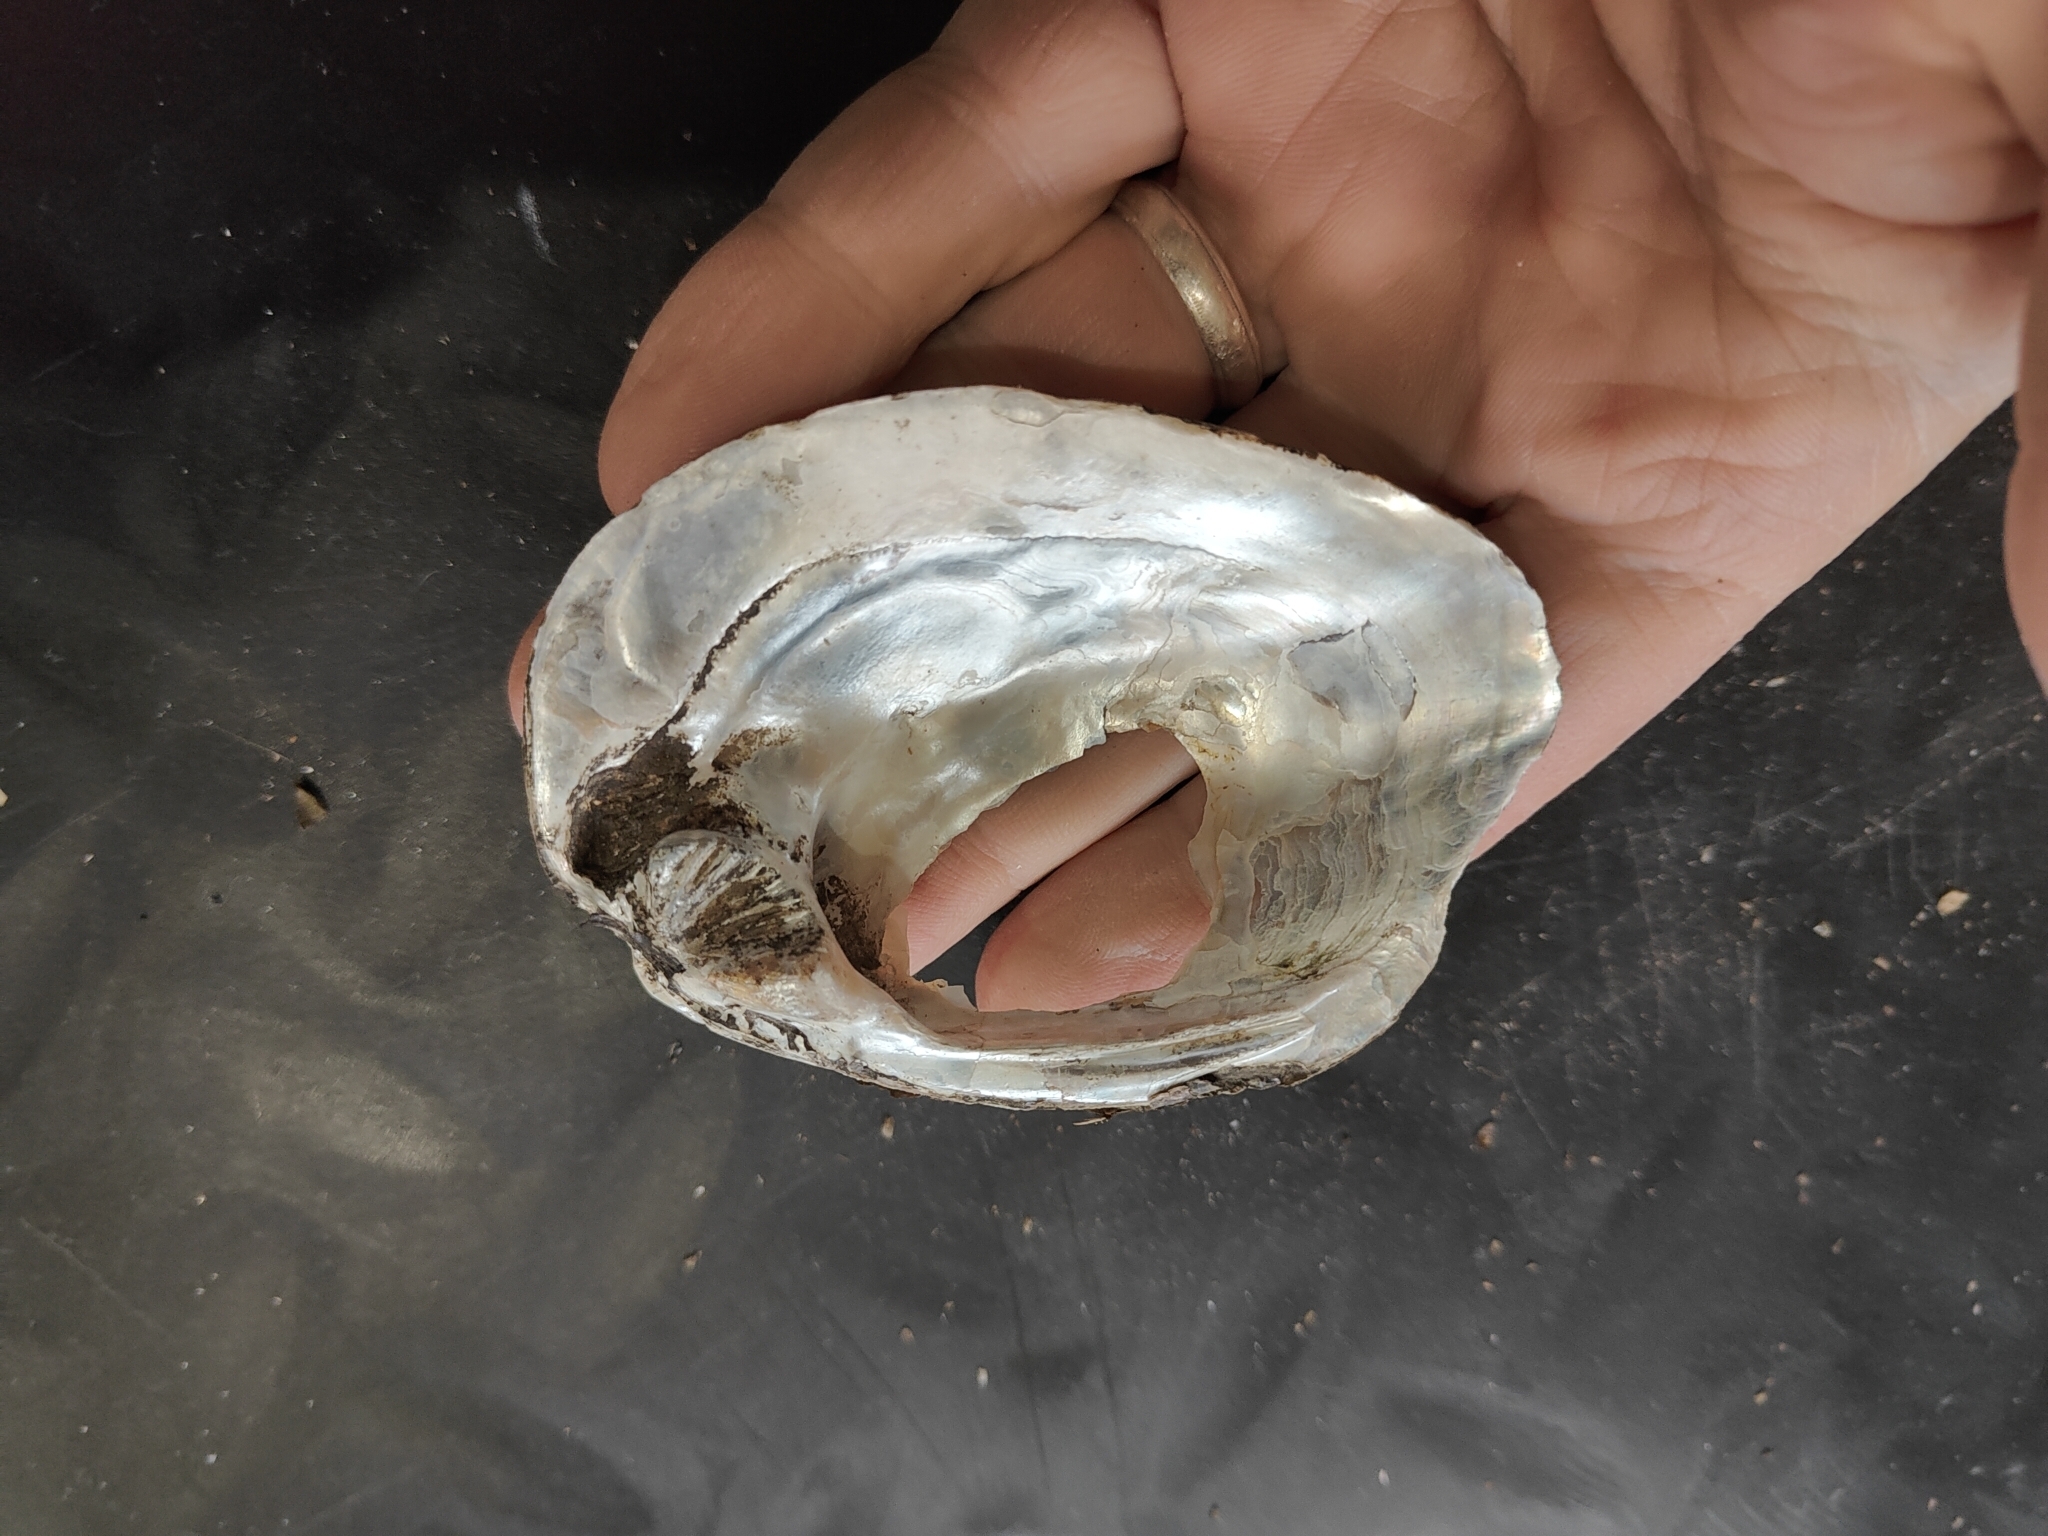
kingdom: Animalia
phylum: Mollusca
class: Bivalvia
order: Unionida
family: Unionidae
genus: Amblema
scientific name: Amblema plicata
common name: Threeridge
